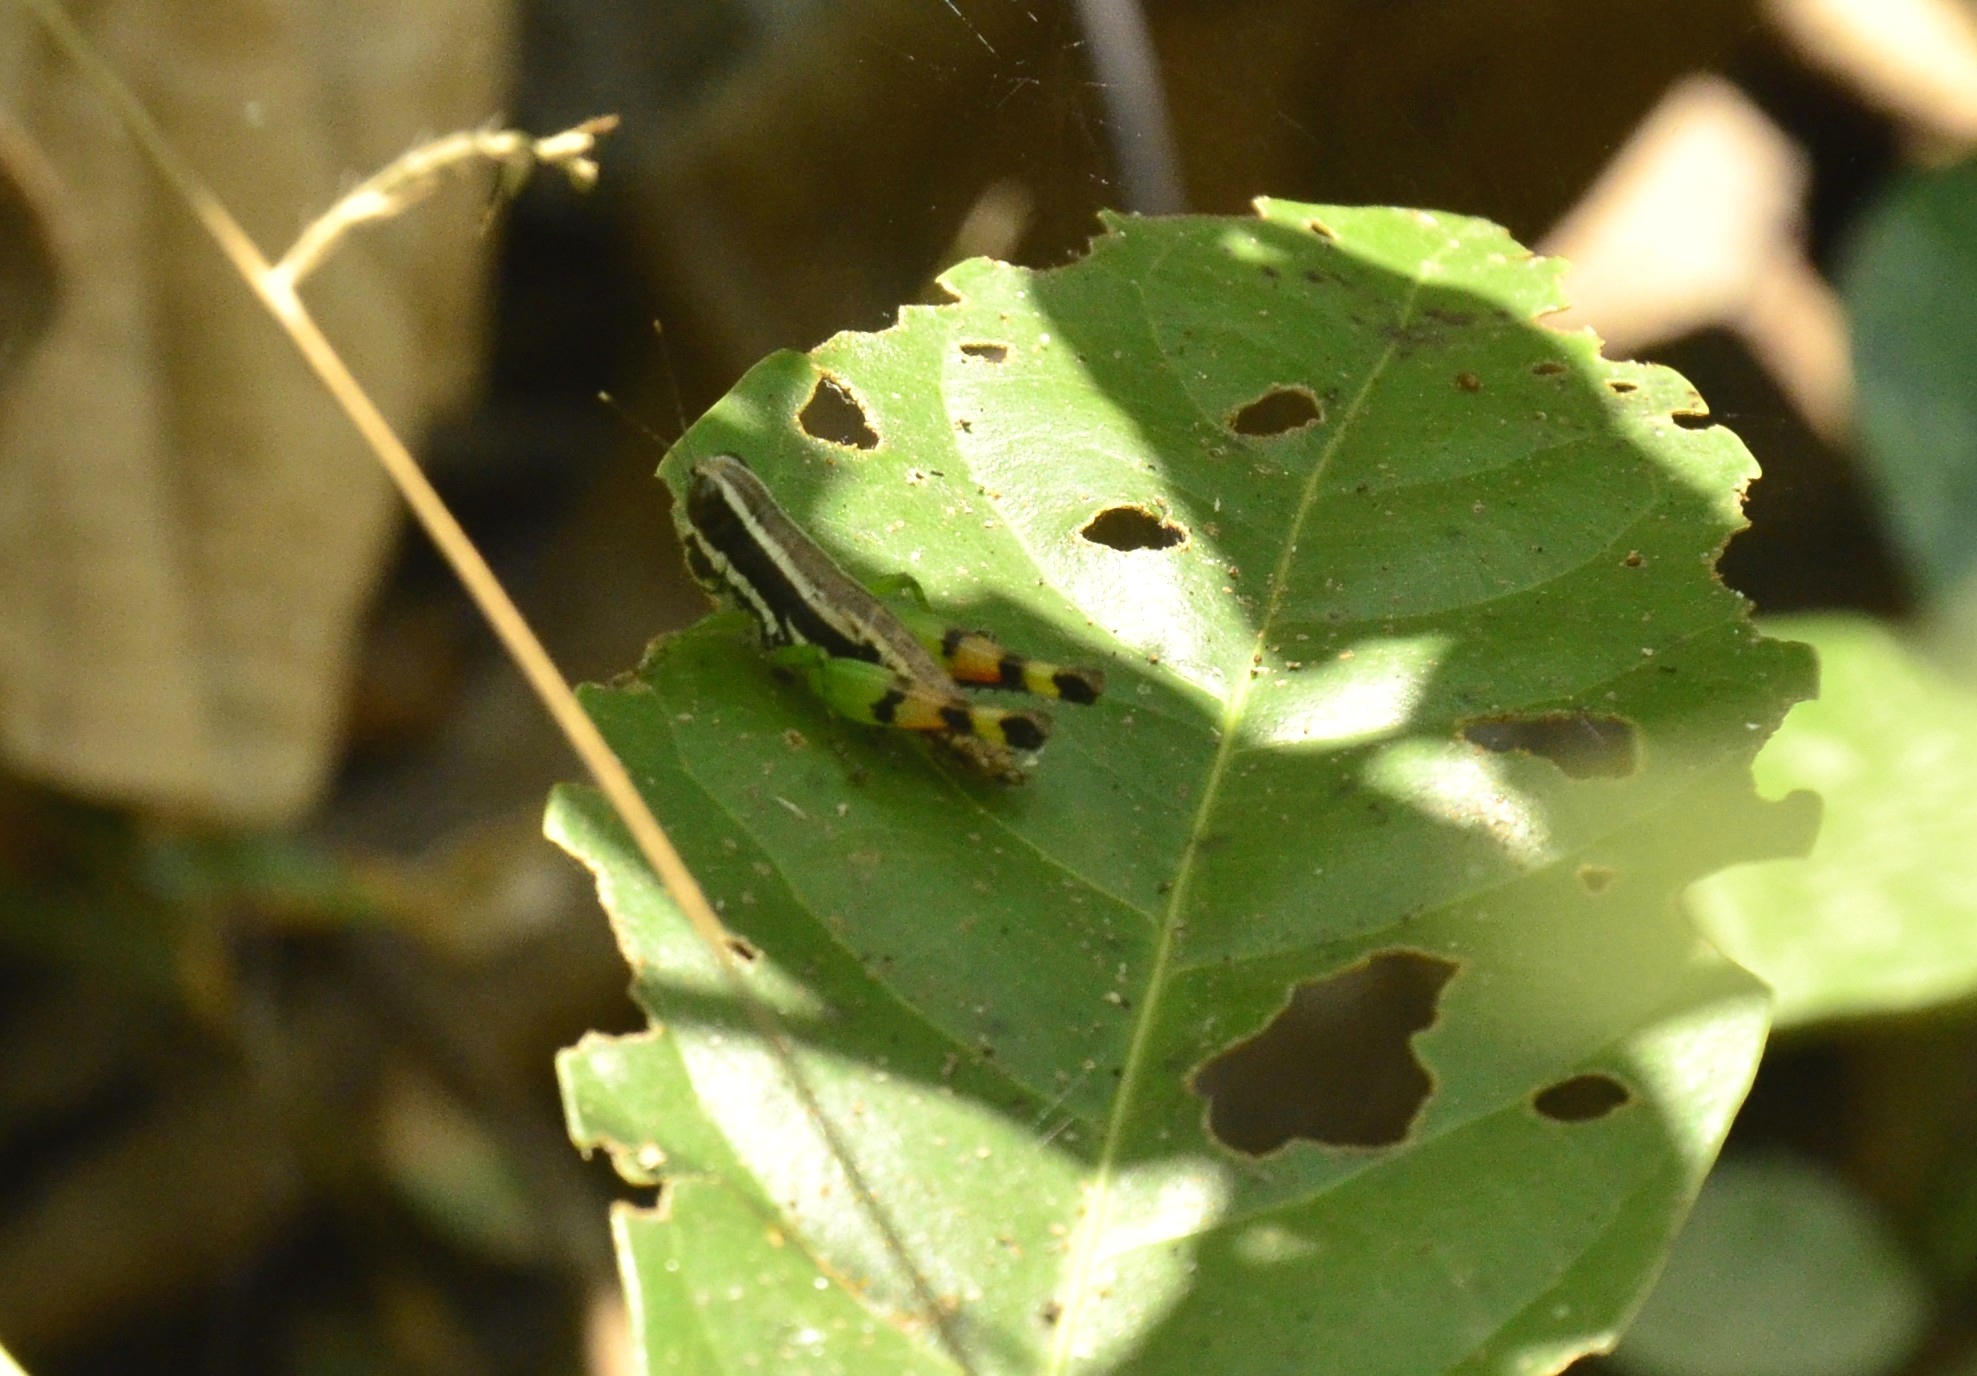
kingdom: Animalia
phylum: Arthropoda
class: Insecta
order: Orthoptera
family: Acrididae
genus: Chitaura
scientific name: Chitaura indica
